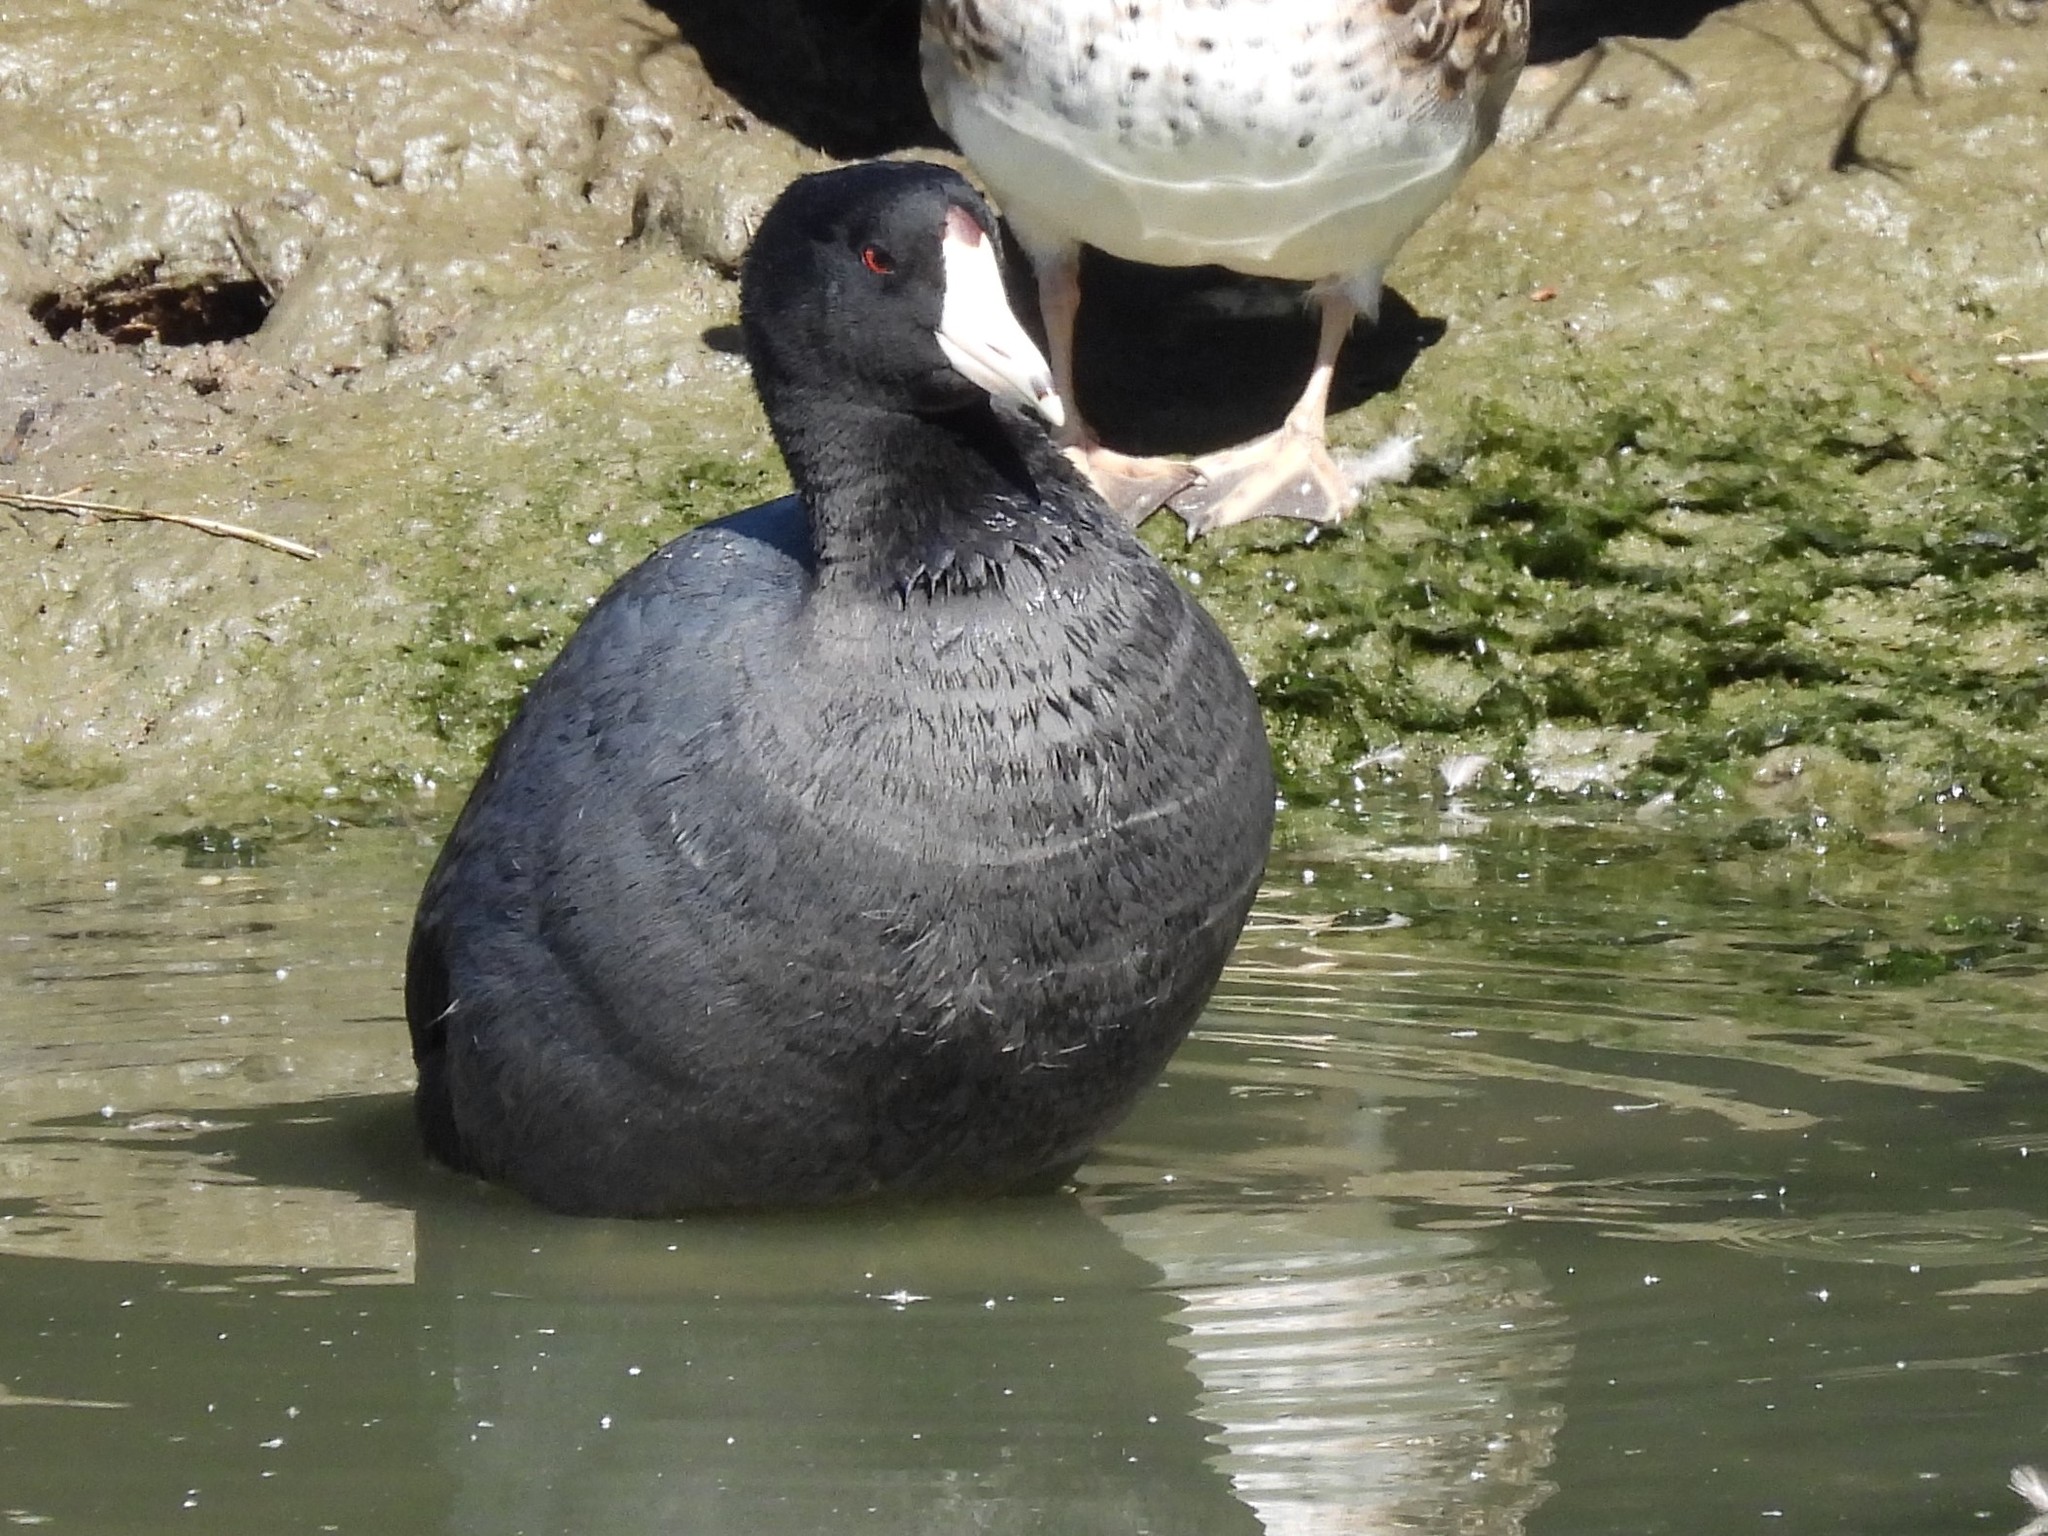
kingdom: Animalia
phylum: Chordata
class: Aves
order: Gruiformes
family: Rallidae
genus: Fulica
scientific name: Fulica americana
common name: American coot
